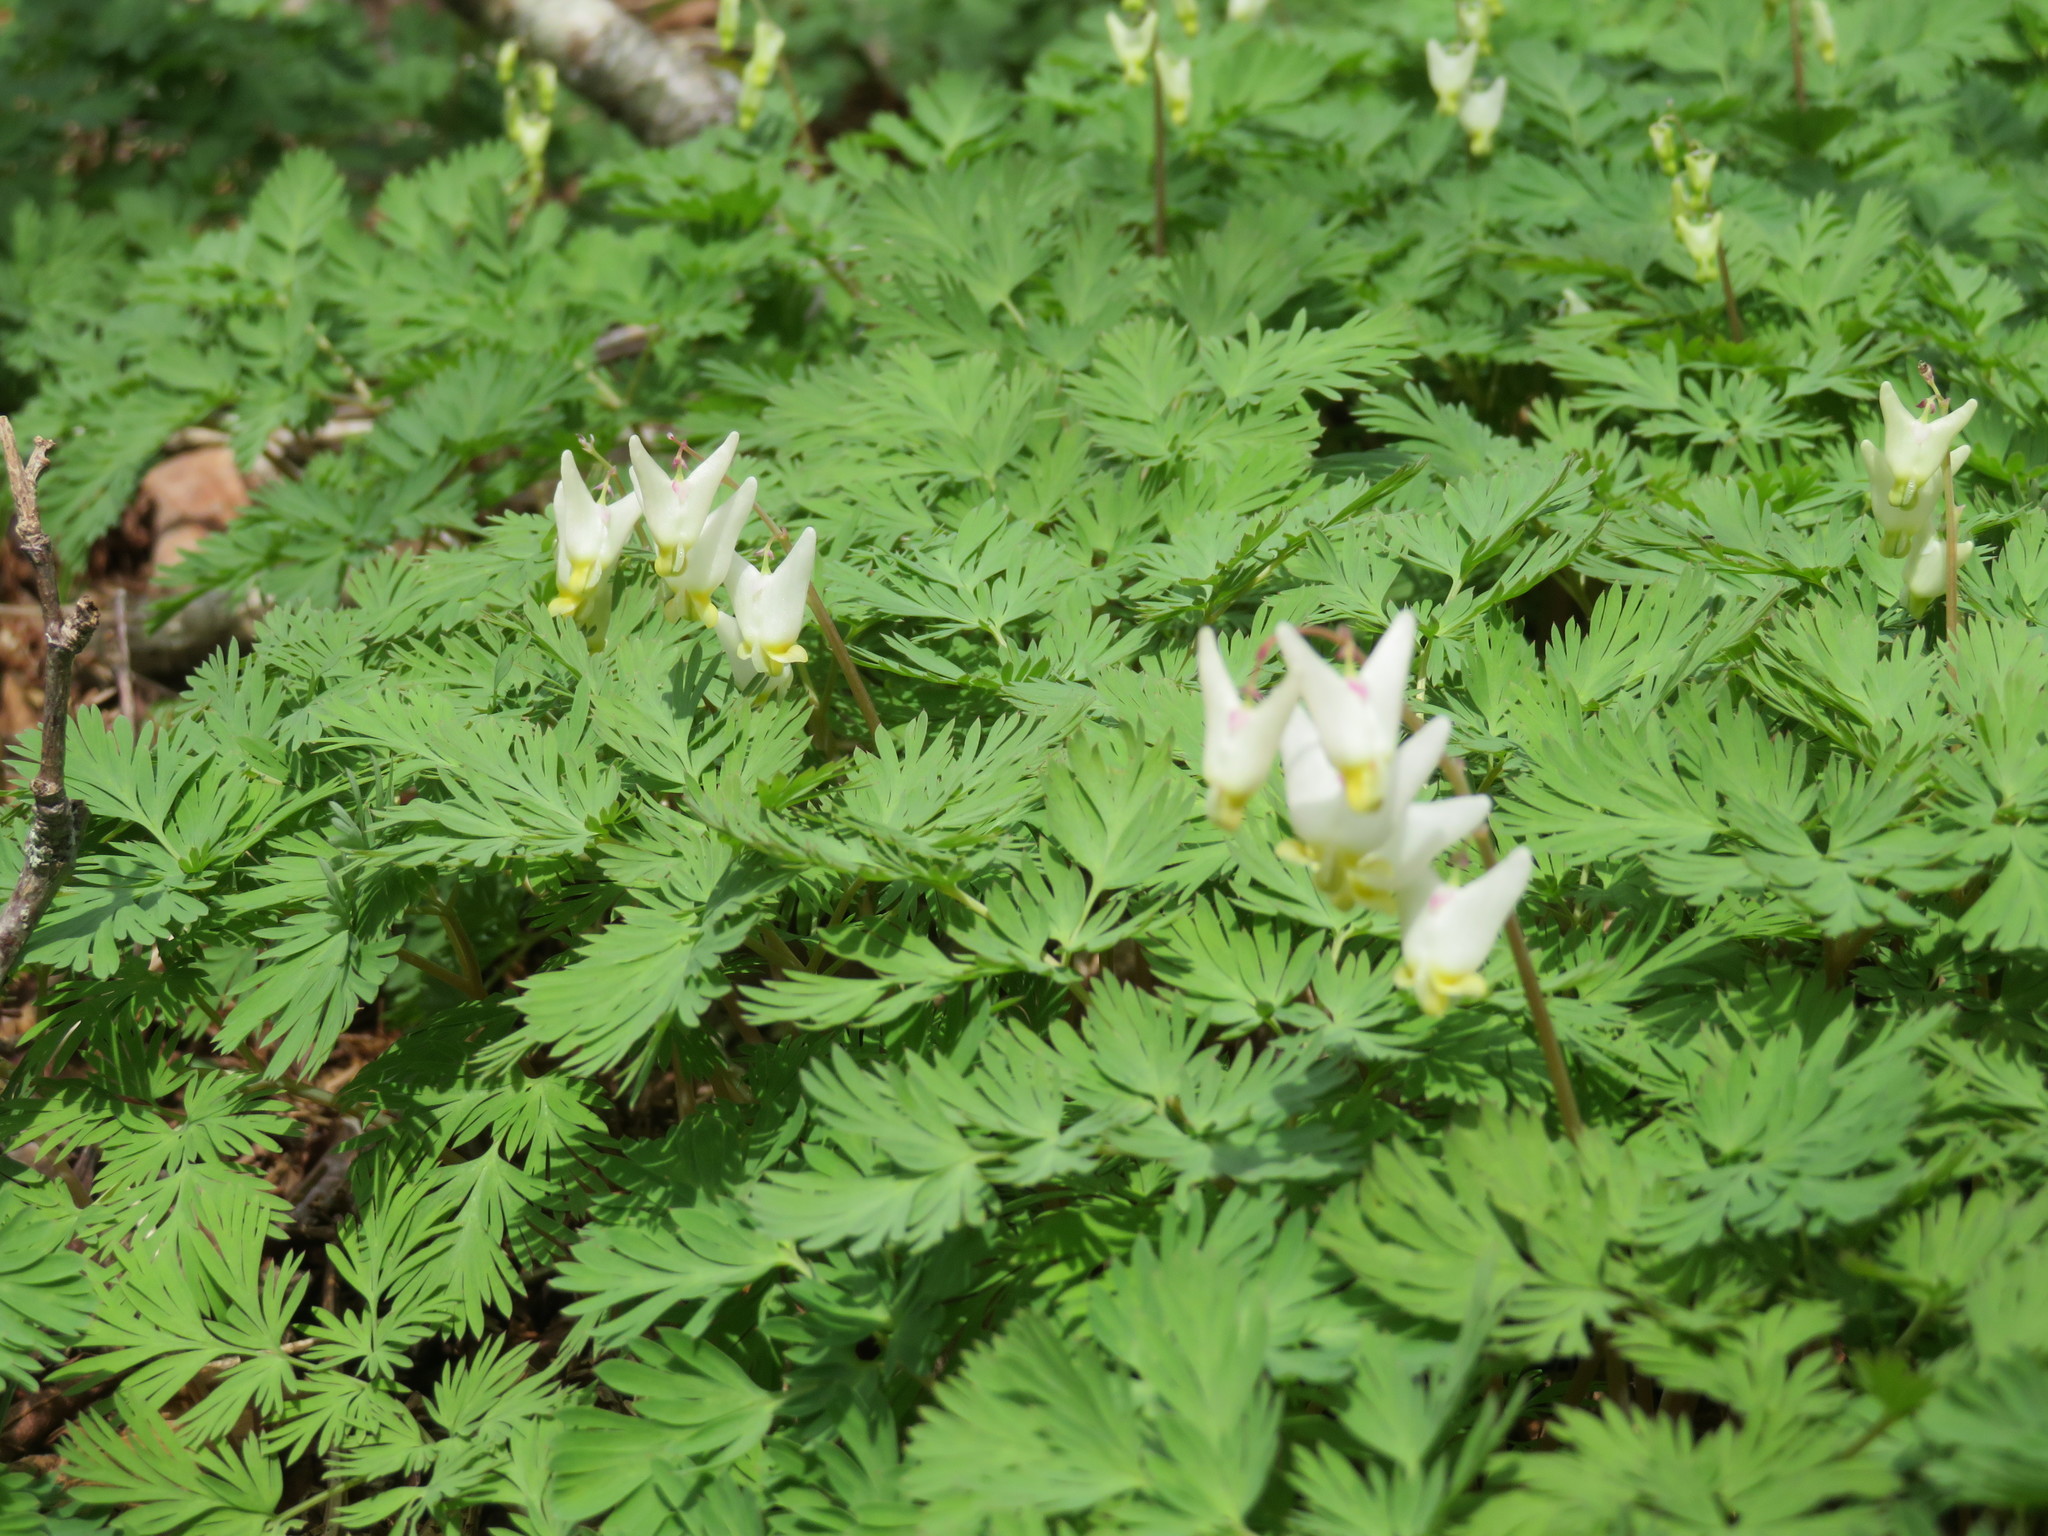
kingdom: Plantae
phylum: Tracheophyta
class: Magnoliopsida
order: Ranunculales
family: Papaveraceae
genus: Dicentra
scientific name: Dicentra cucullaria
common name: Dutchman's breeches
